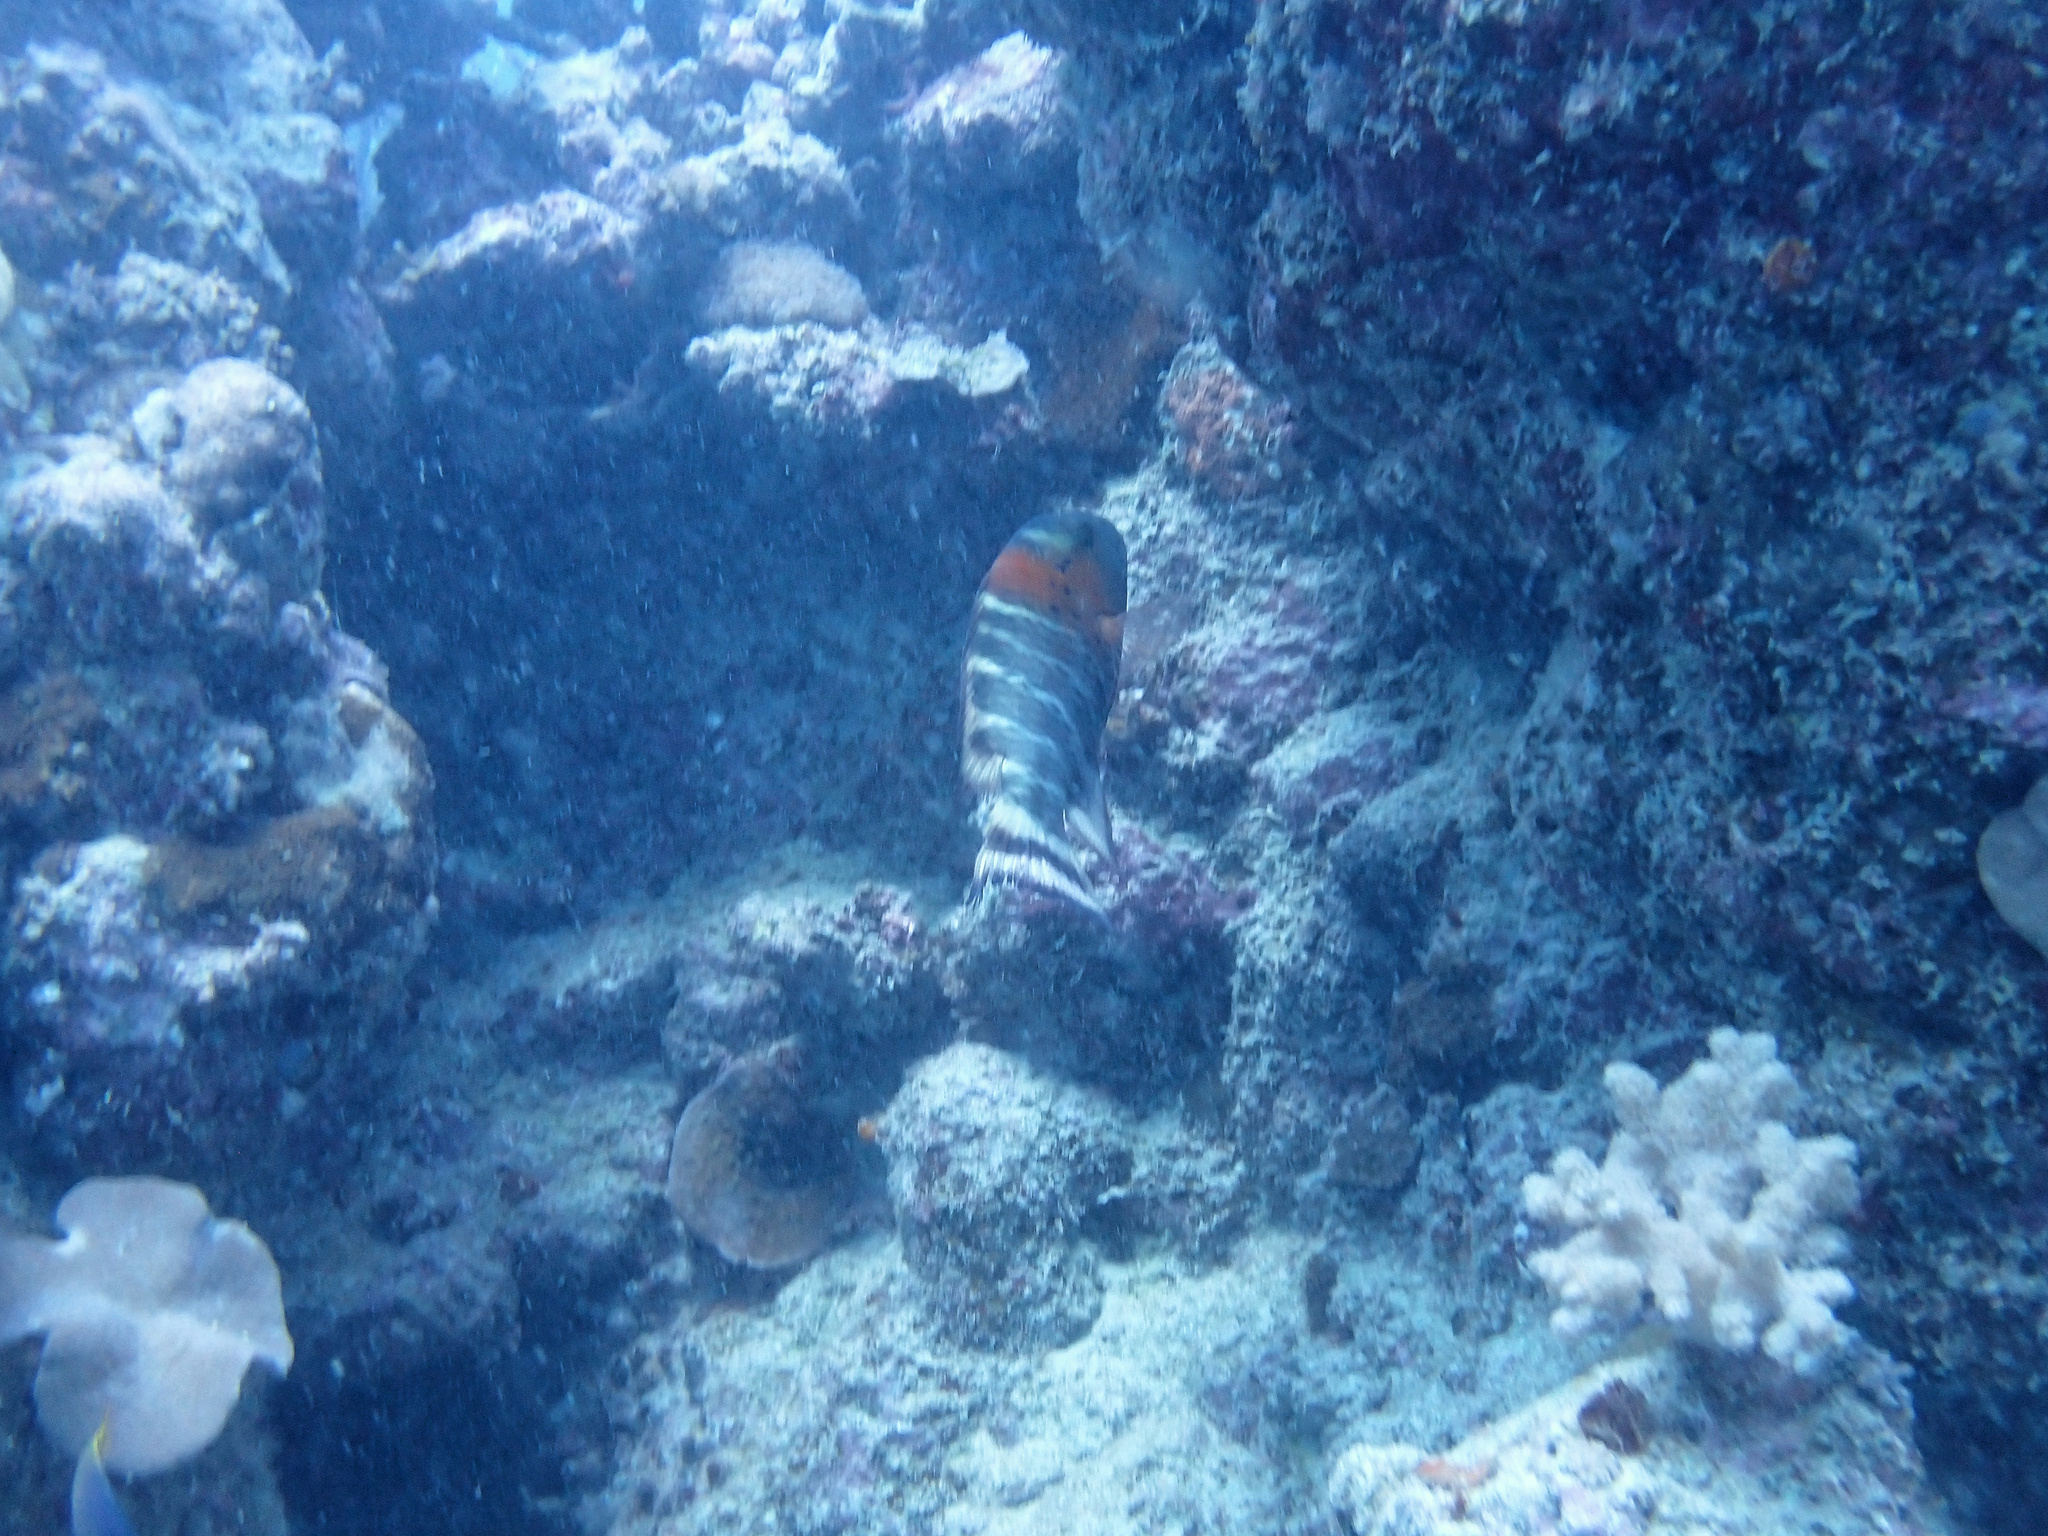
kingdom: Animalia
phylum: Chordata
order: Perciformes
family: Labridae
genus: Cheilinus
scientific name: Cheilinus fasciatus
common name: Red-breasted wrasse
